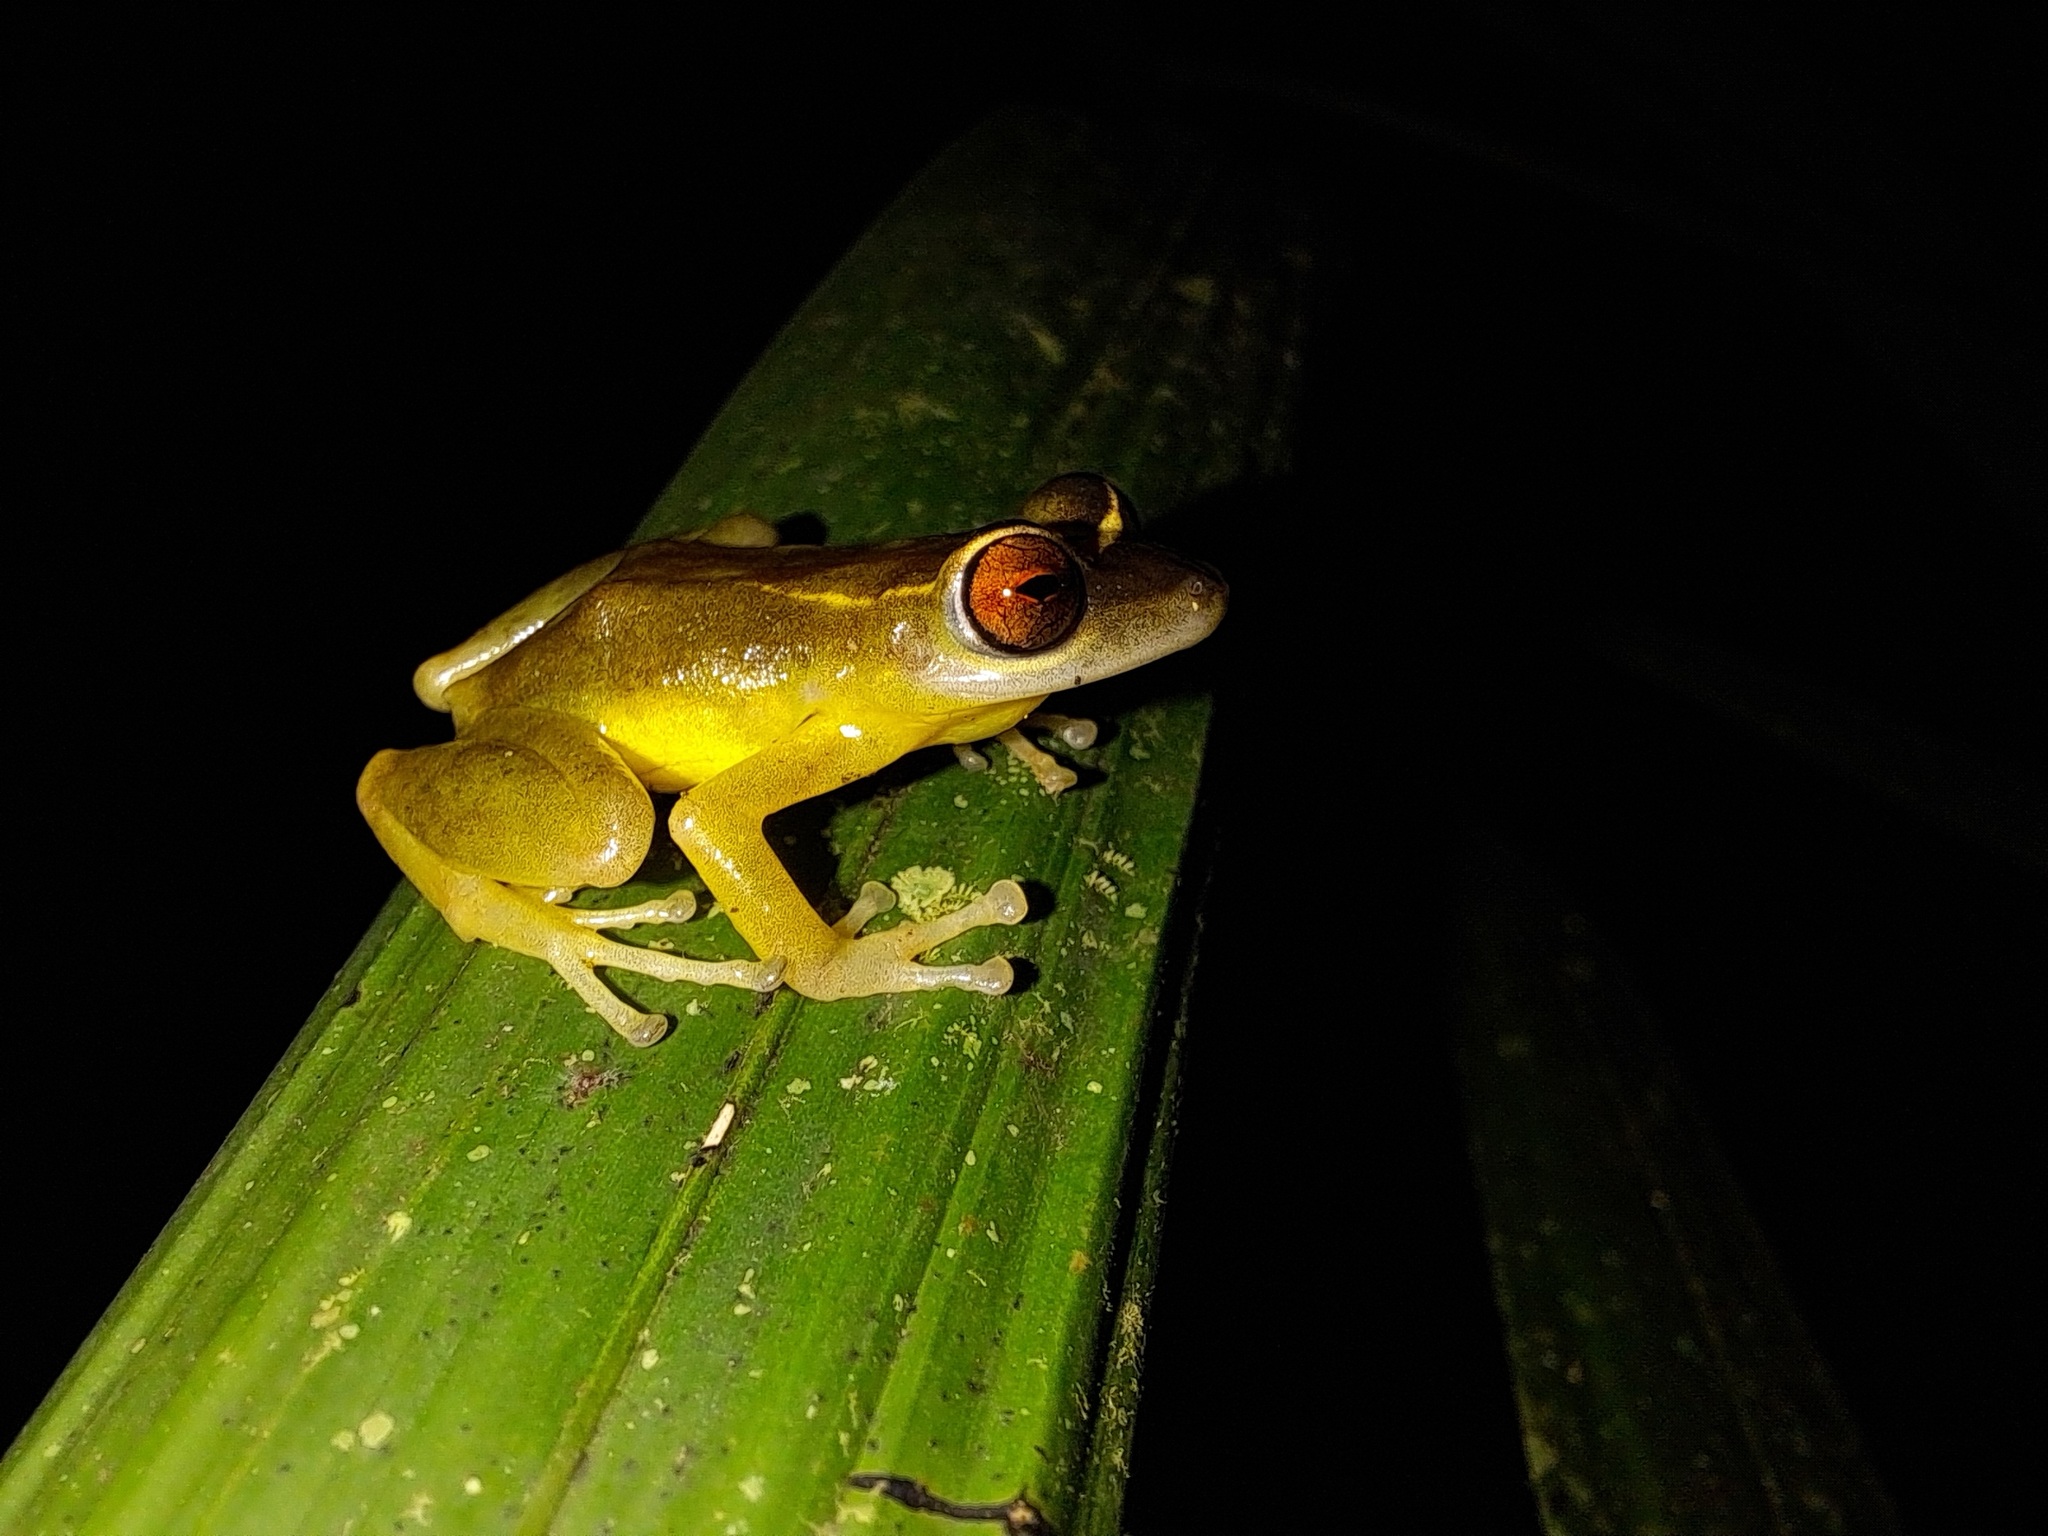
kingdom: Animalia
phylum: Chordata
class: Amphibia
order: Anura
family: Craugastoridae
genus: Pristimantis
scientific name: Pristimantis aureolineatus
